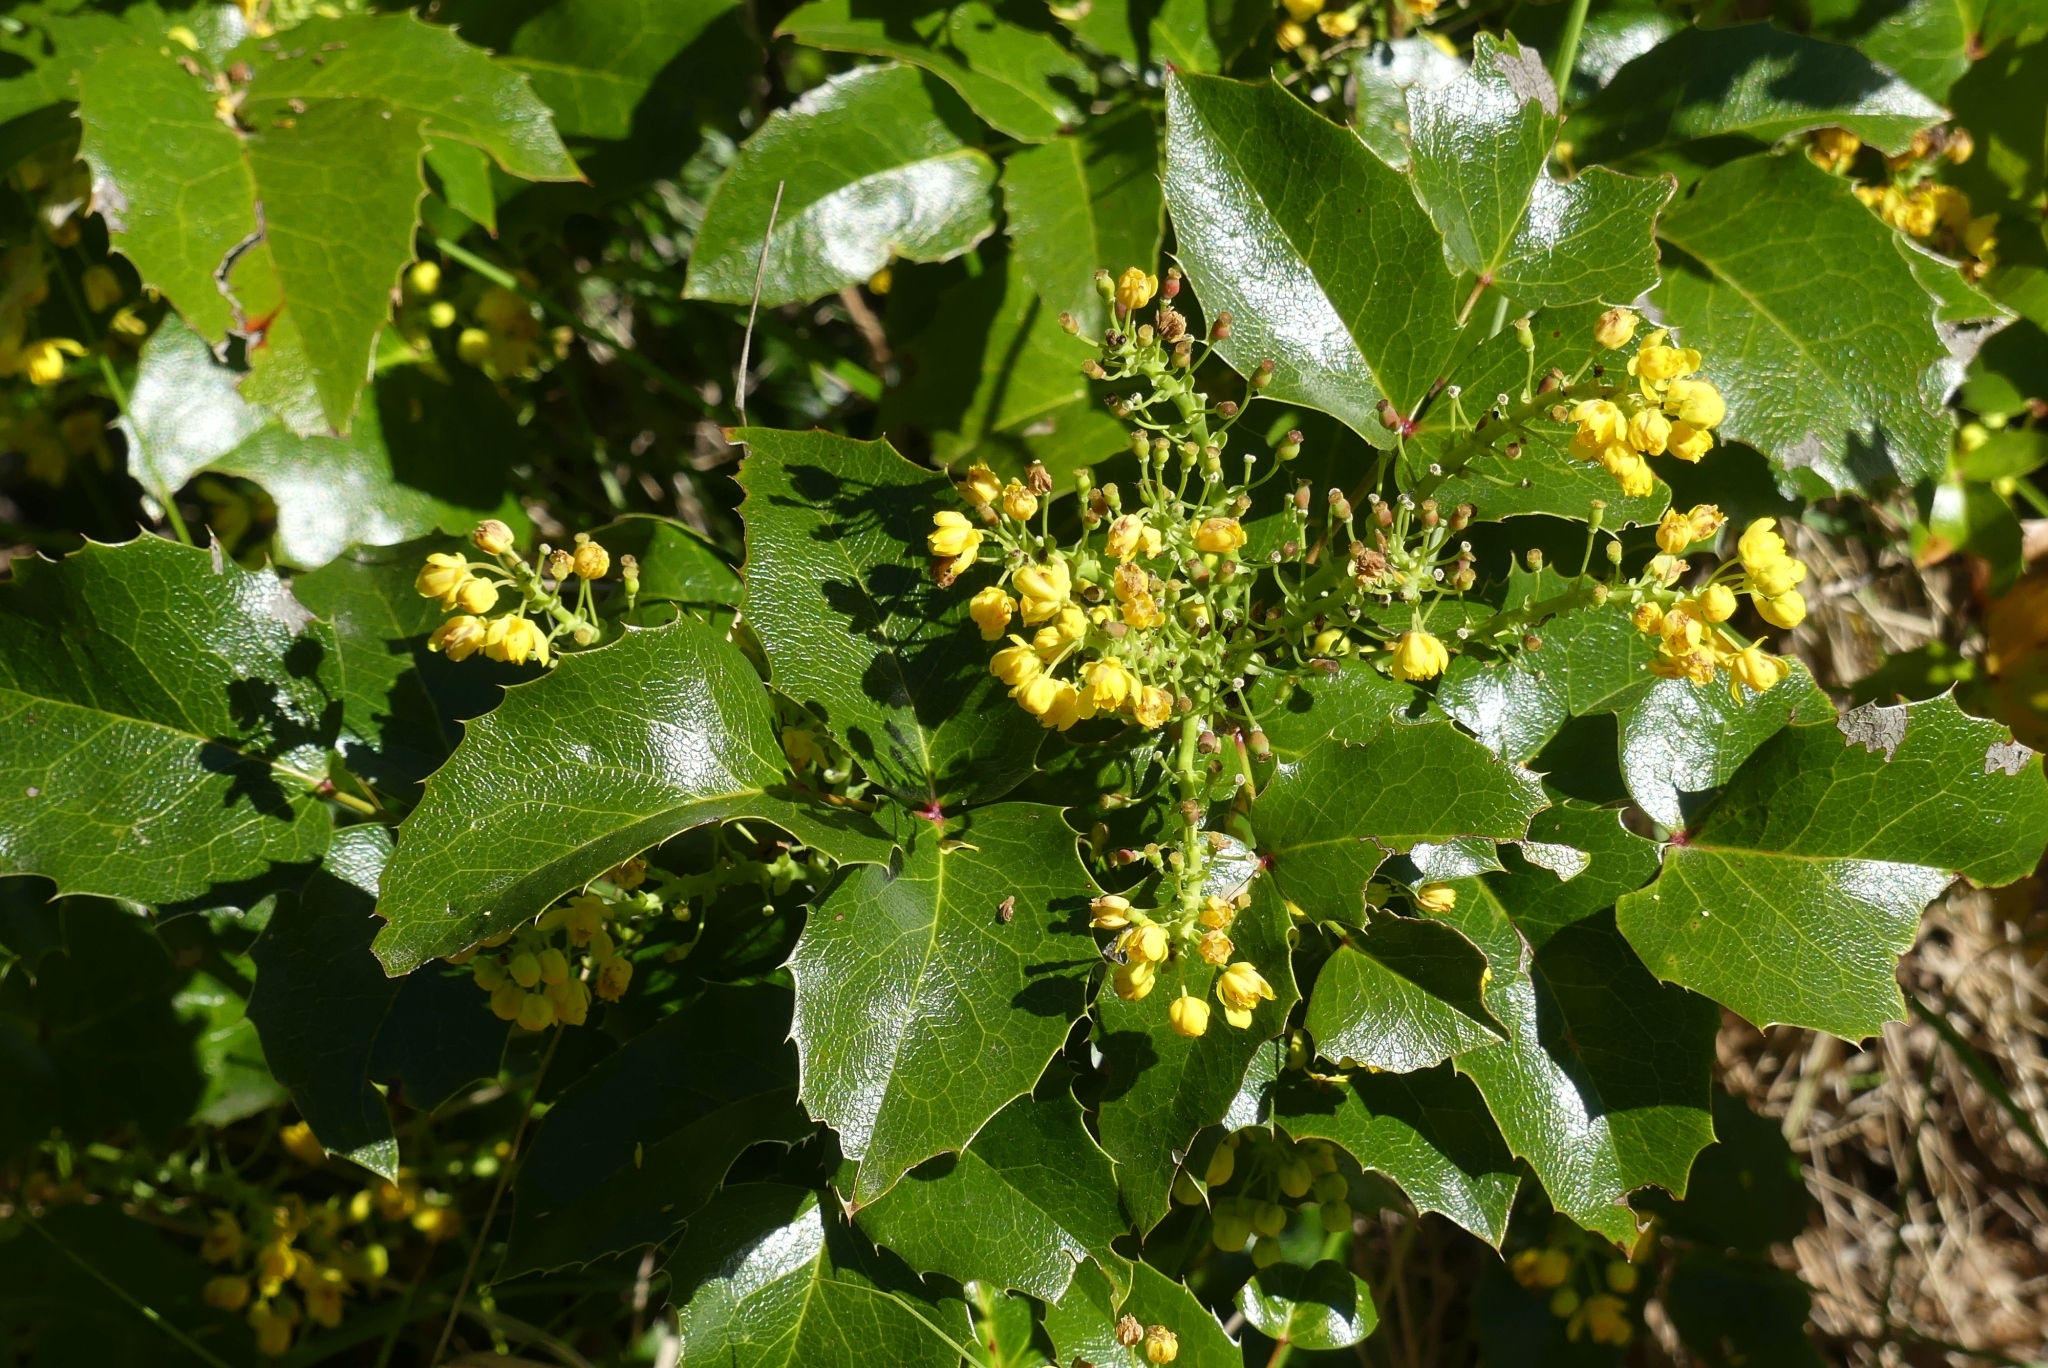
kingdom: Plantae
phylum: Tracheophyta
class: Magnoliopsida
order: Ranunculales
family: Berberidaceae
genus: Mahonia
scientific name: Mahonia aquifolium
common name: Oregon-grape
